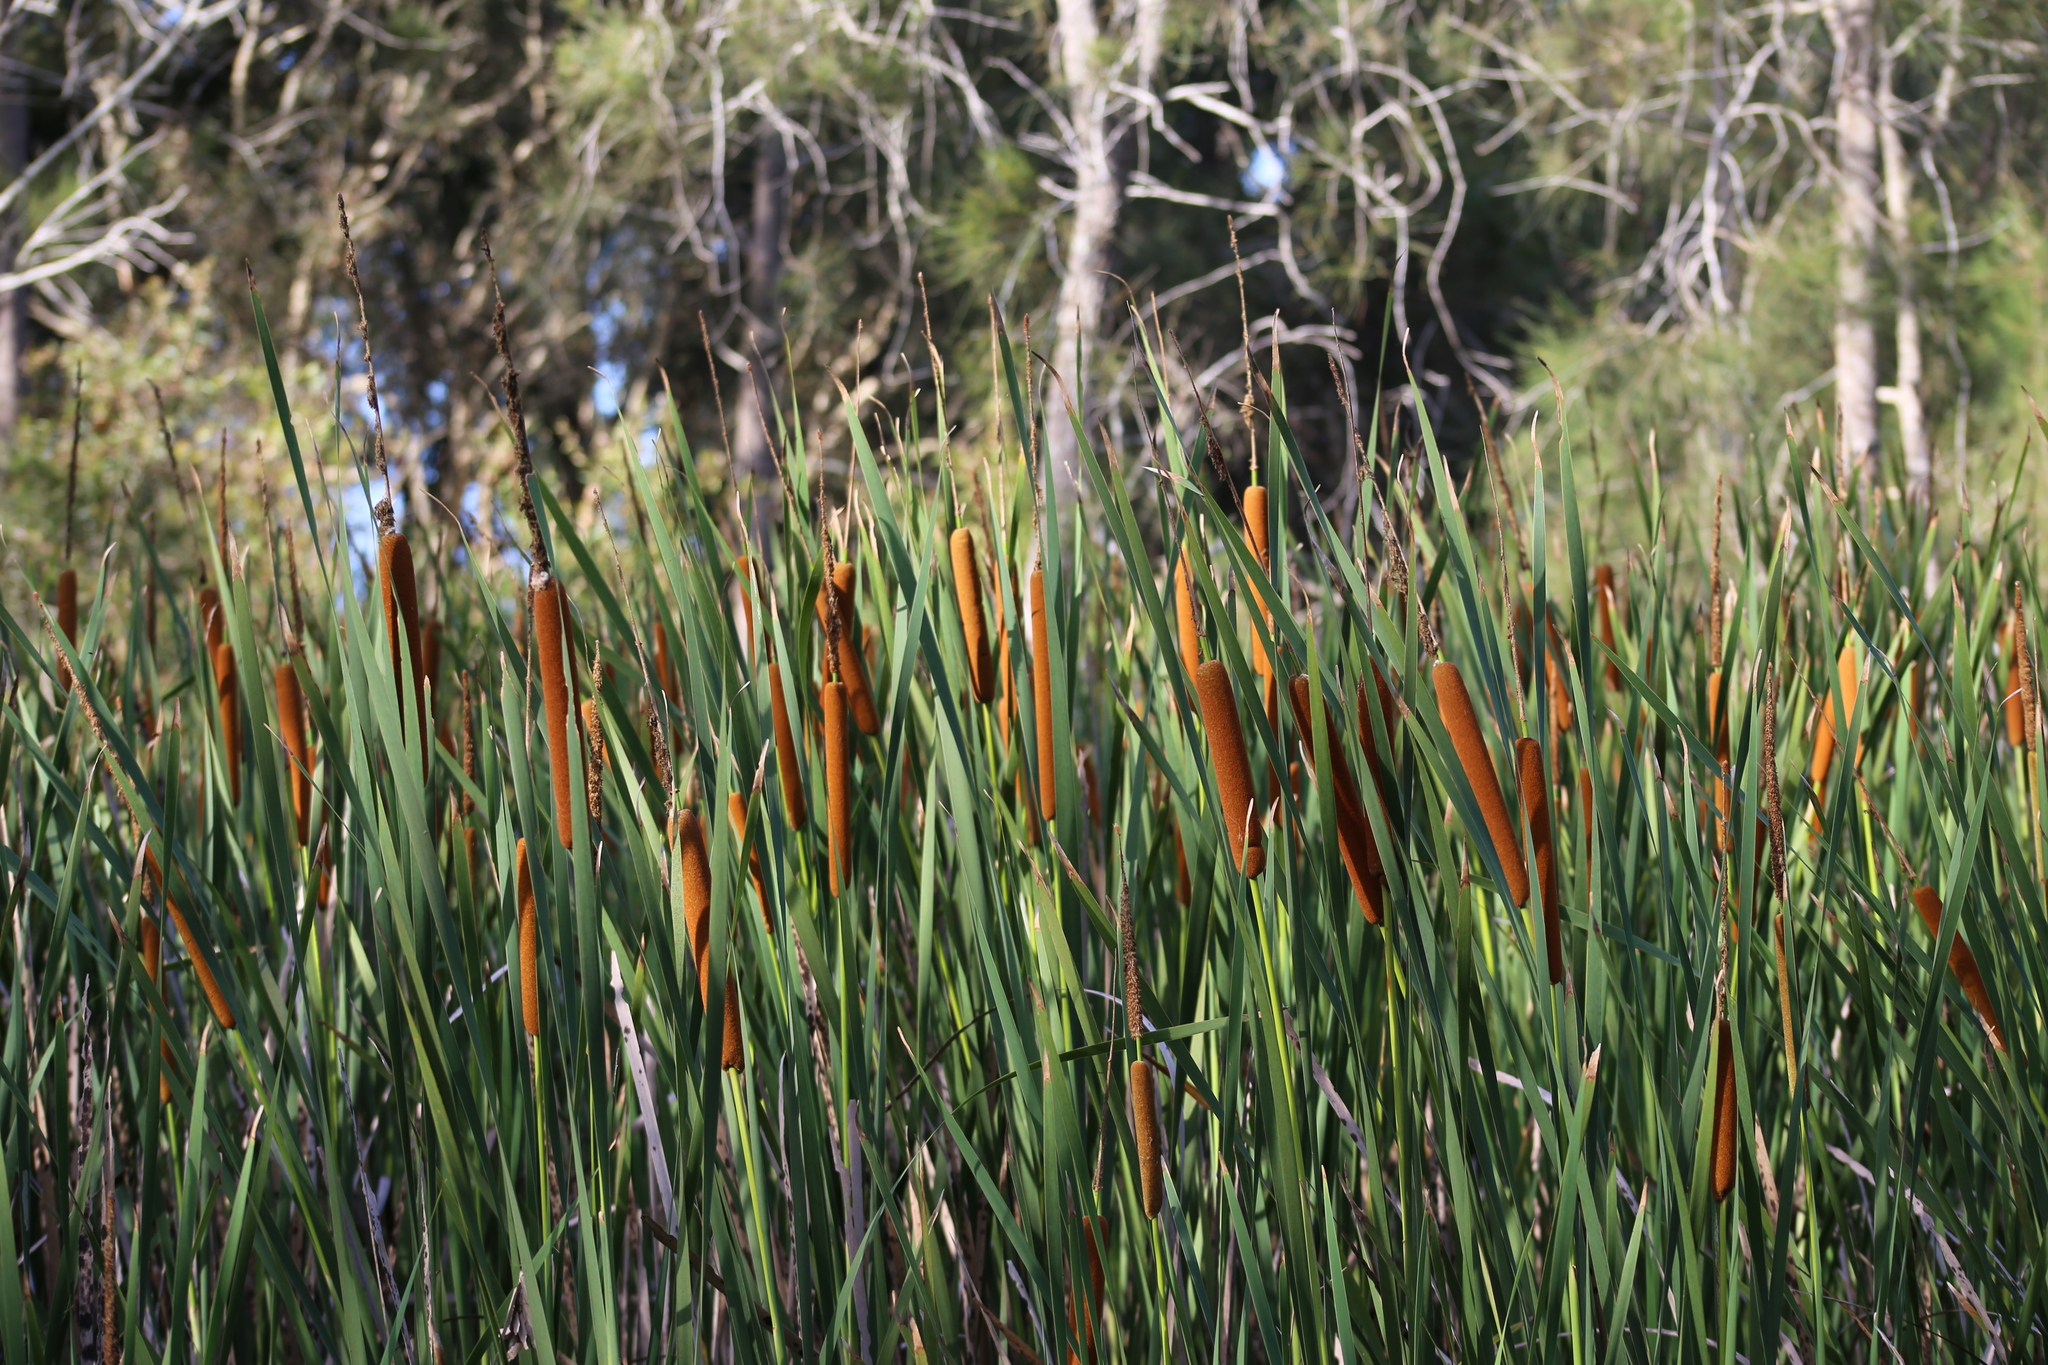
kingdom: Plantae
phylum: Tracheophyta
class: Liliopsida
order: Poales
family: Typhaceae
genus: Typha
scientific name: Typha orientalis
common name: Bullrush
